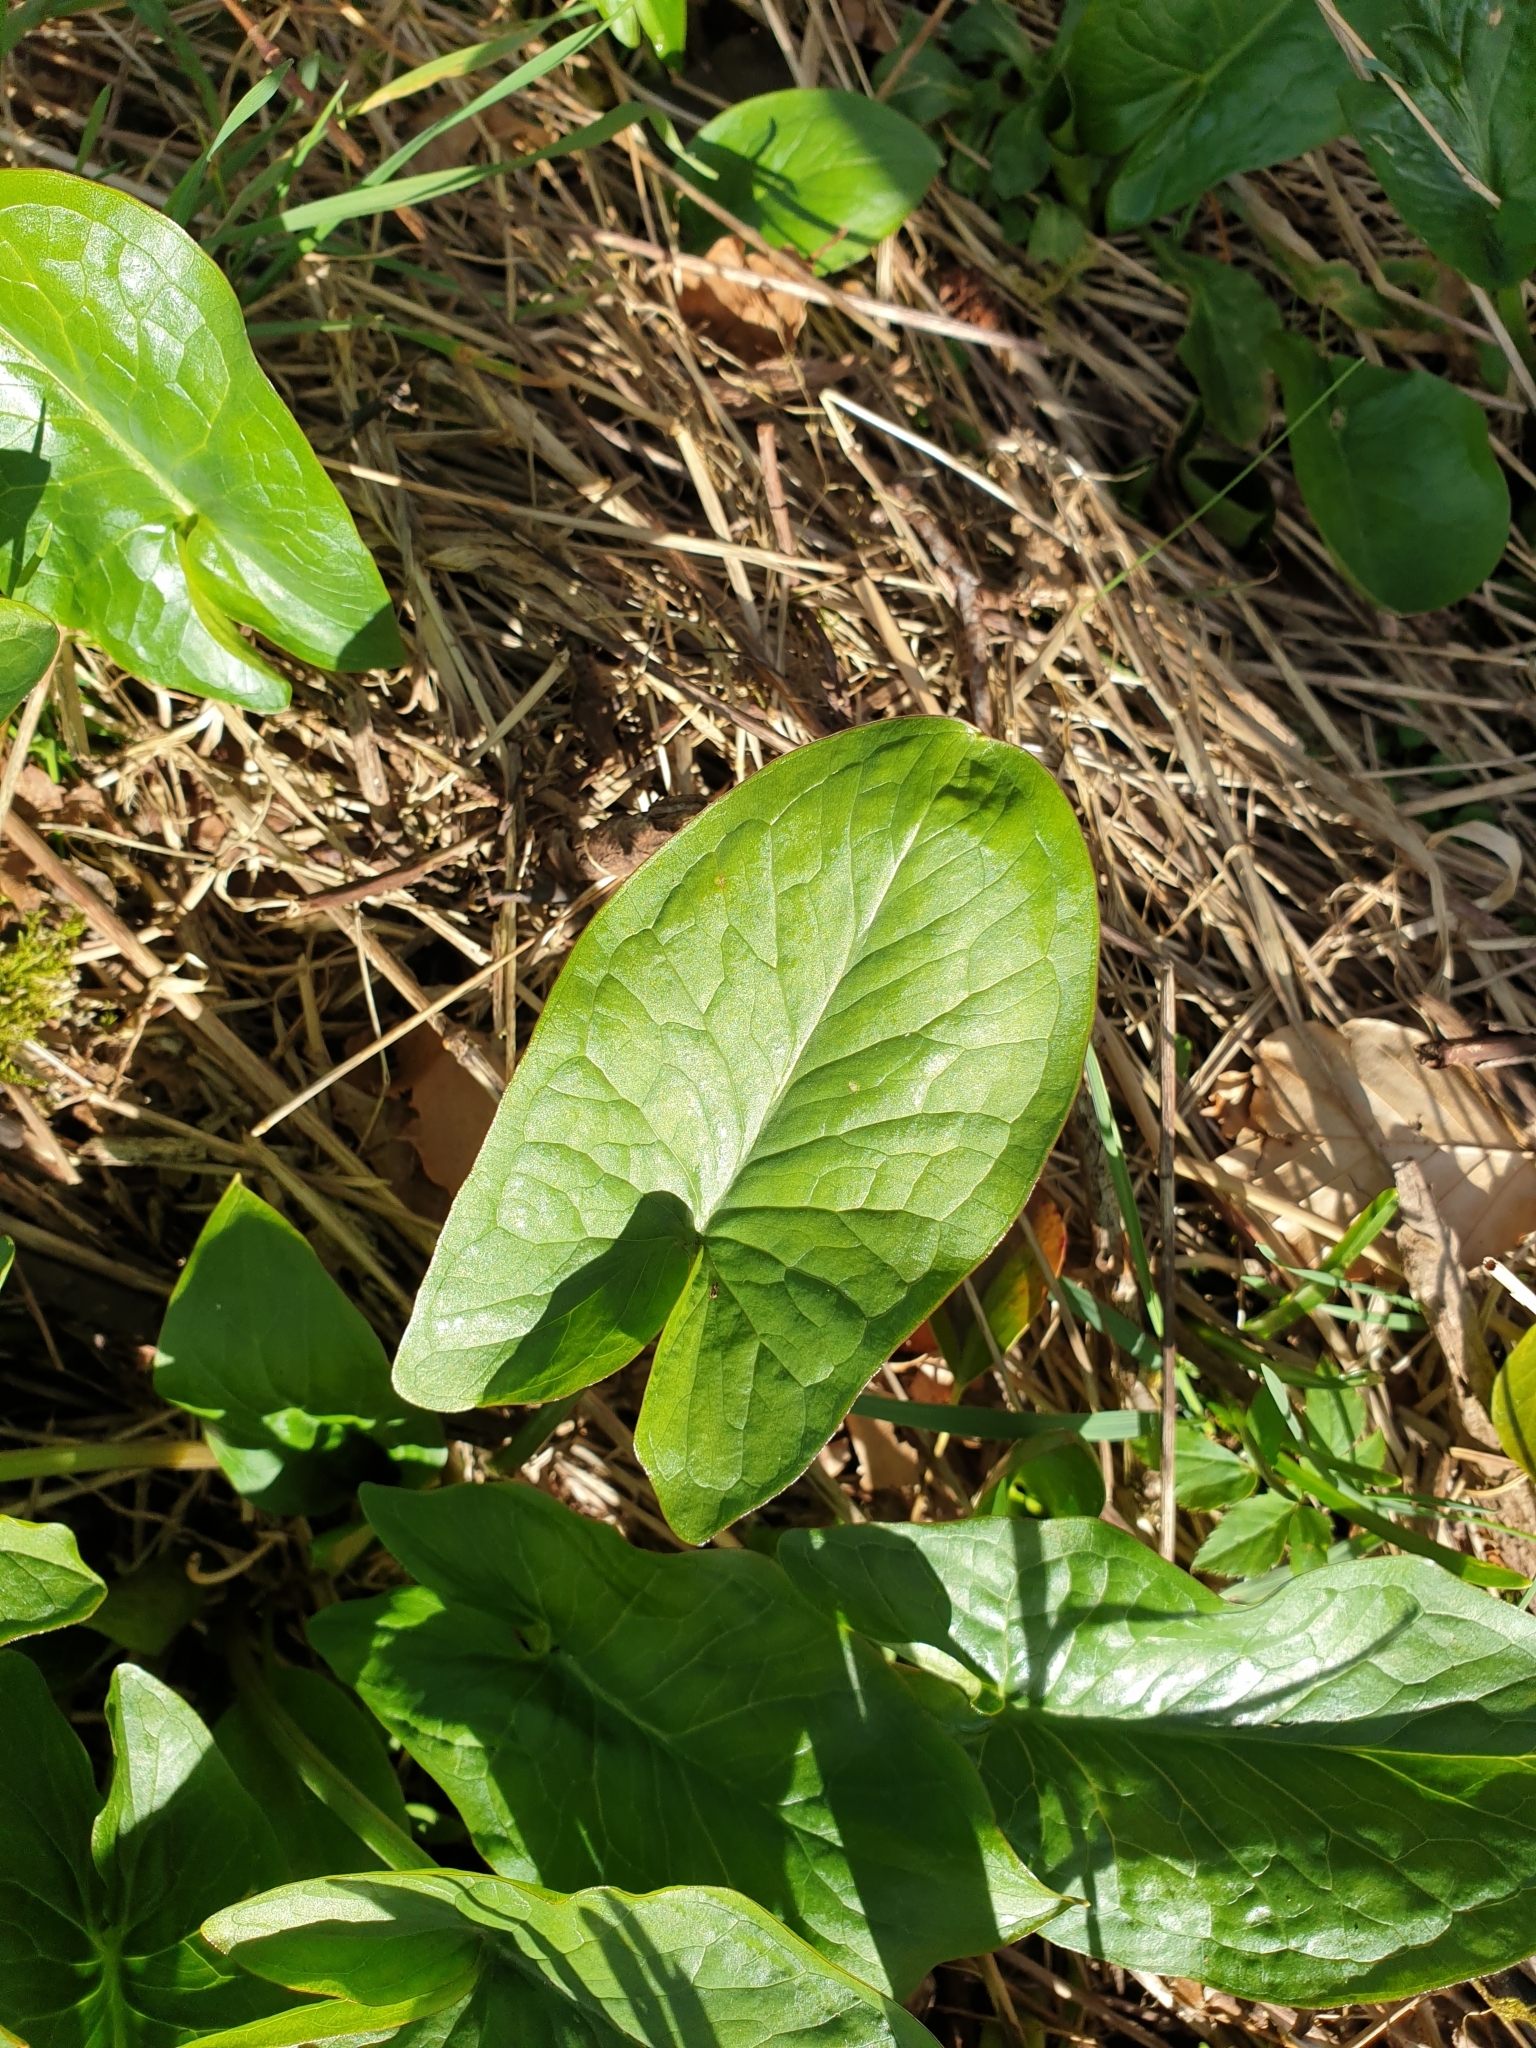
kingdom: Plantae
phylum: Tracheophyta
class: Liliopsida
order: Alismatales
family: Araceae
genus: Arum
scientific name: Arum maculatum
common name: Lords-and-ladies
